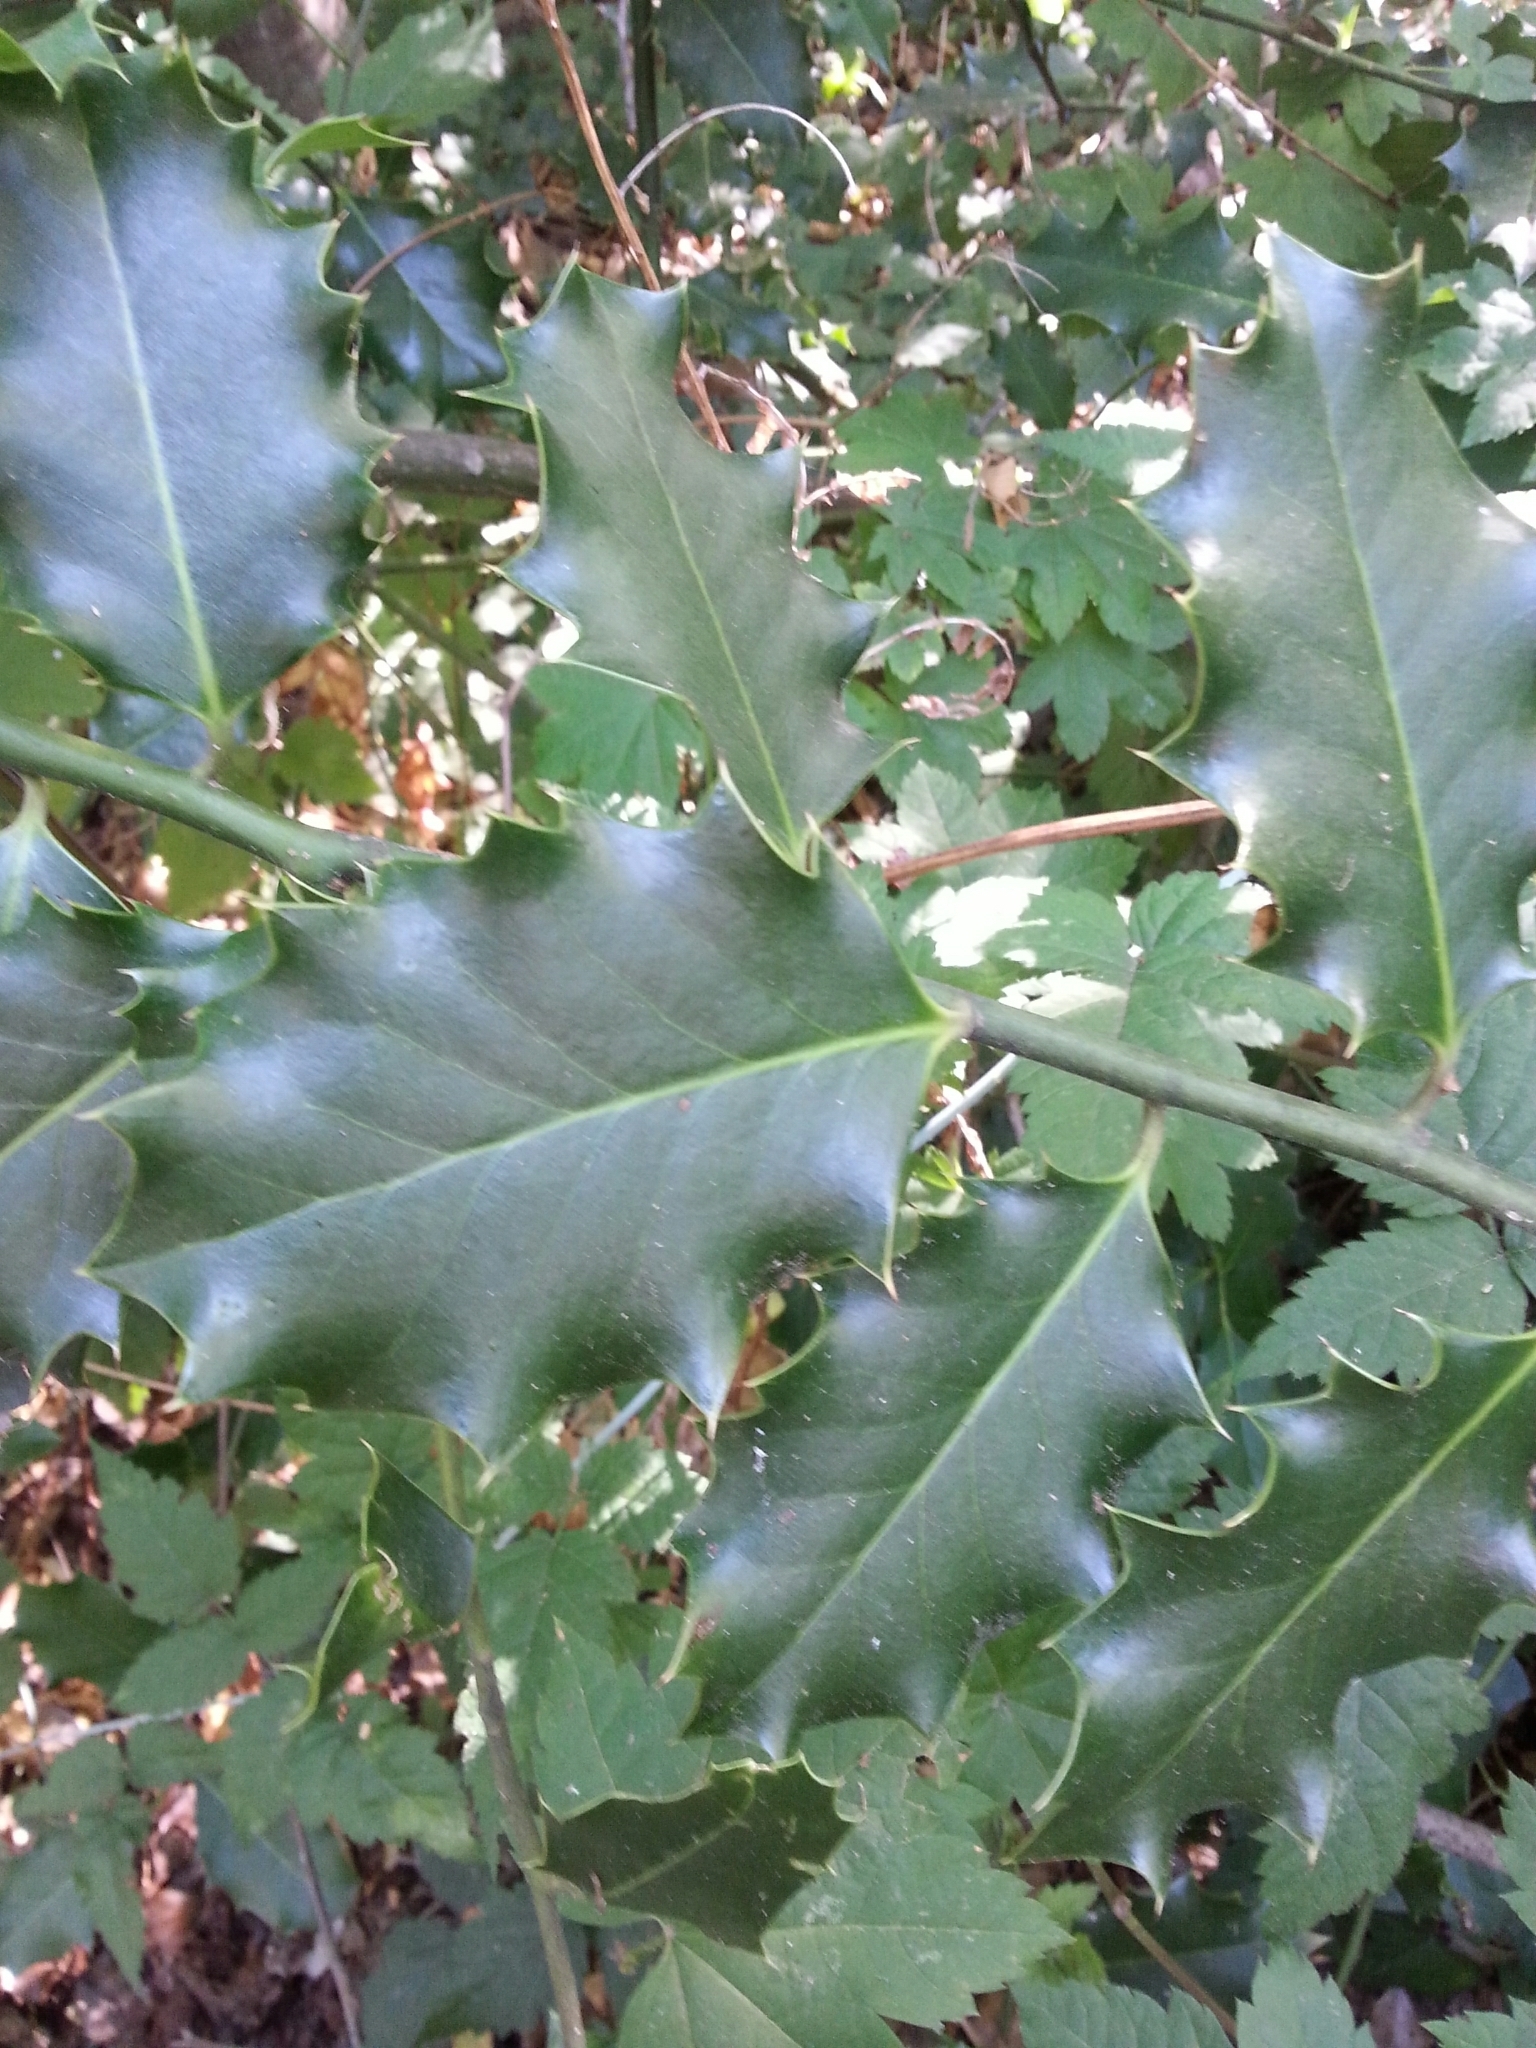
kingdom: Plantae
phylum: Tracheophyta
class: Magnoliopsida
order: Aquifoliales
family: Aquifoliaceae
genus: Ilex
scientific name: Ilex aquifolium
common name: English holly
